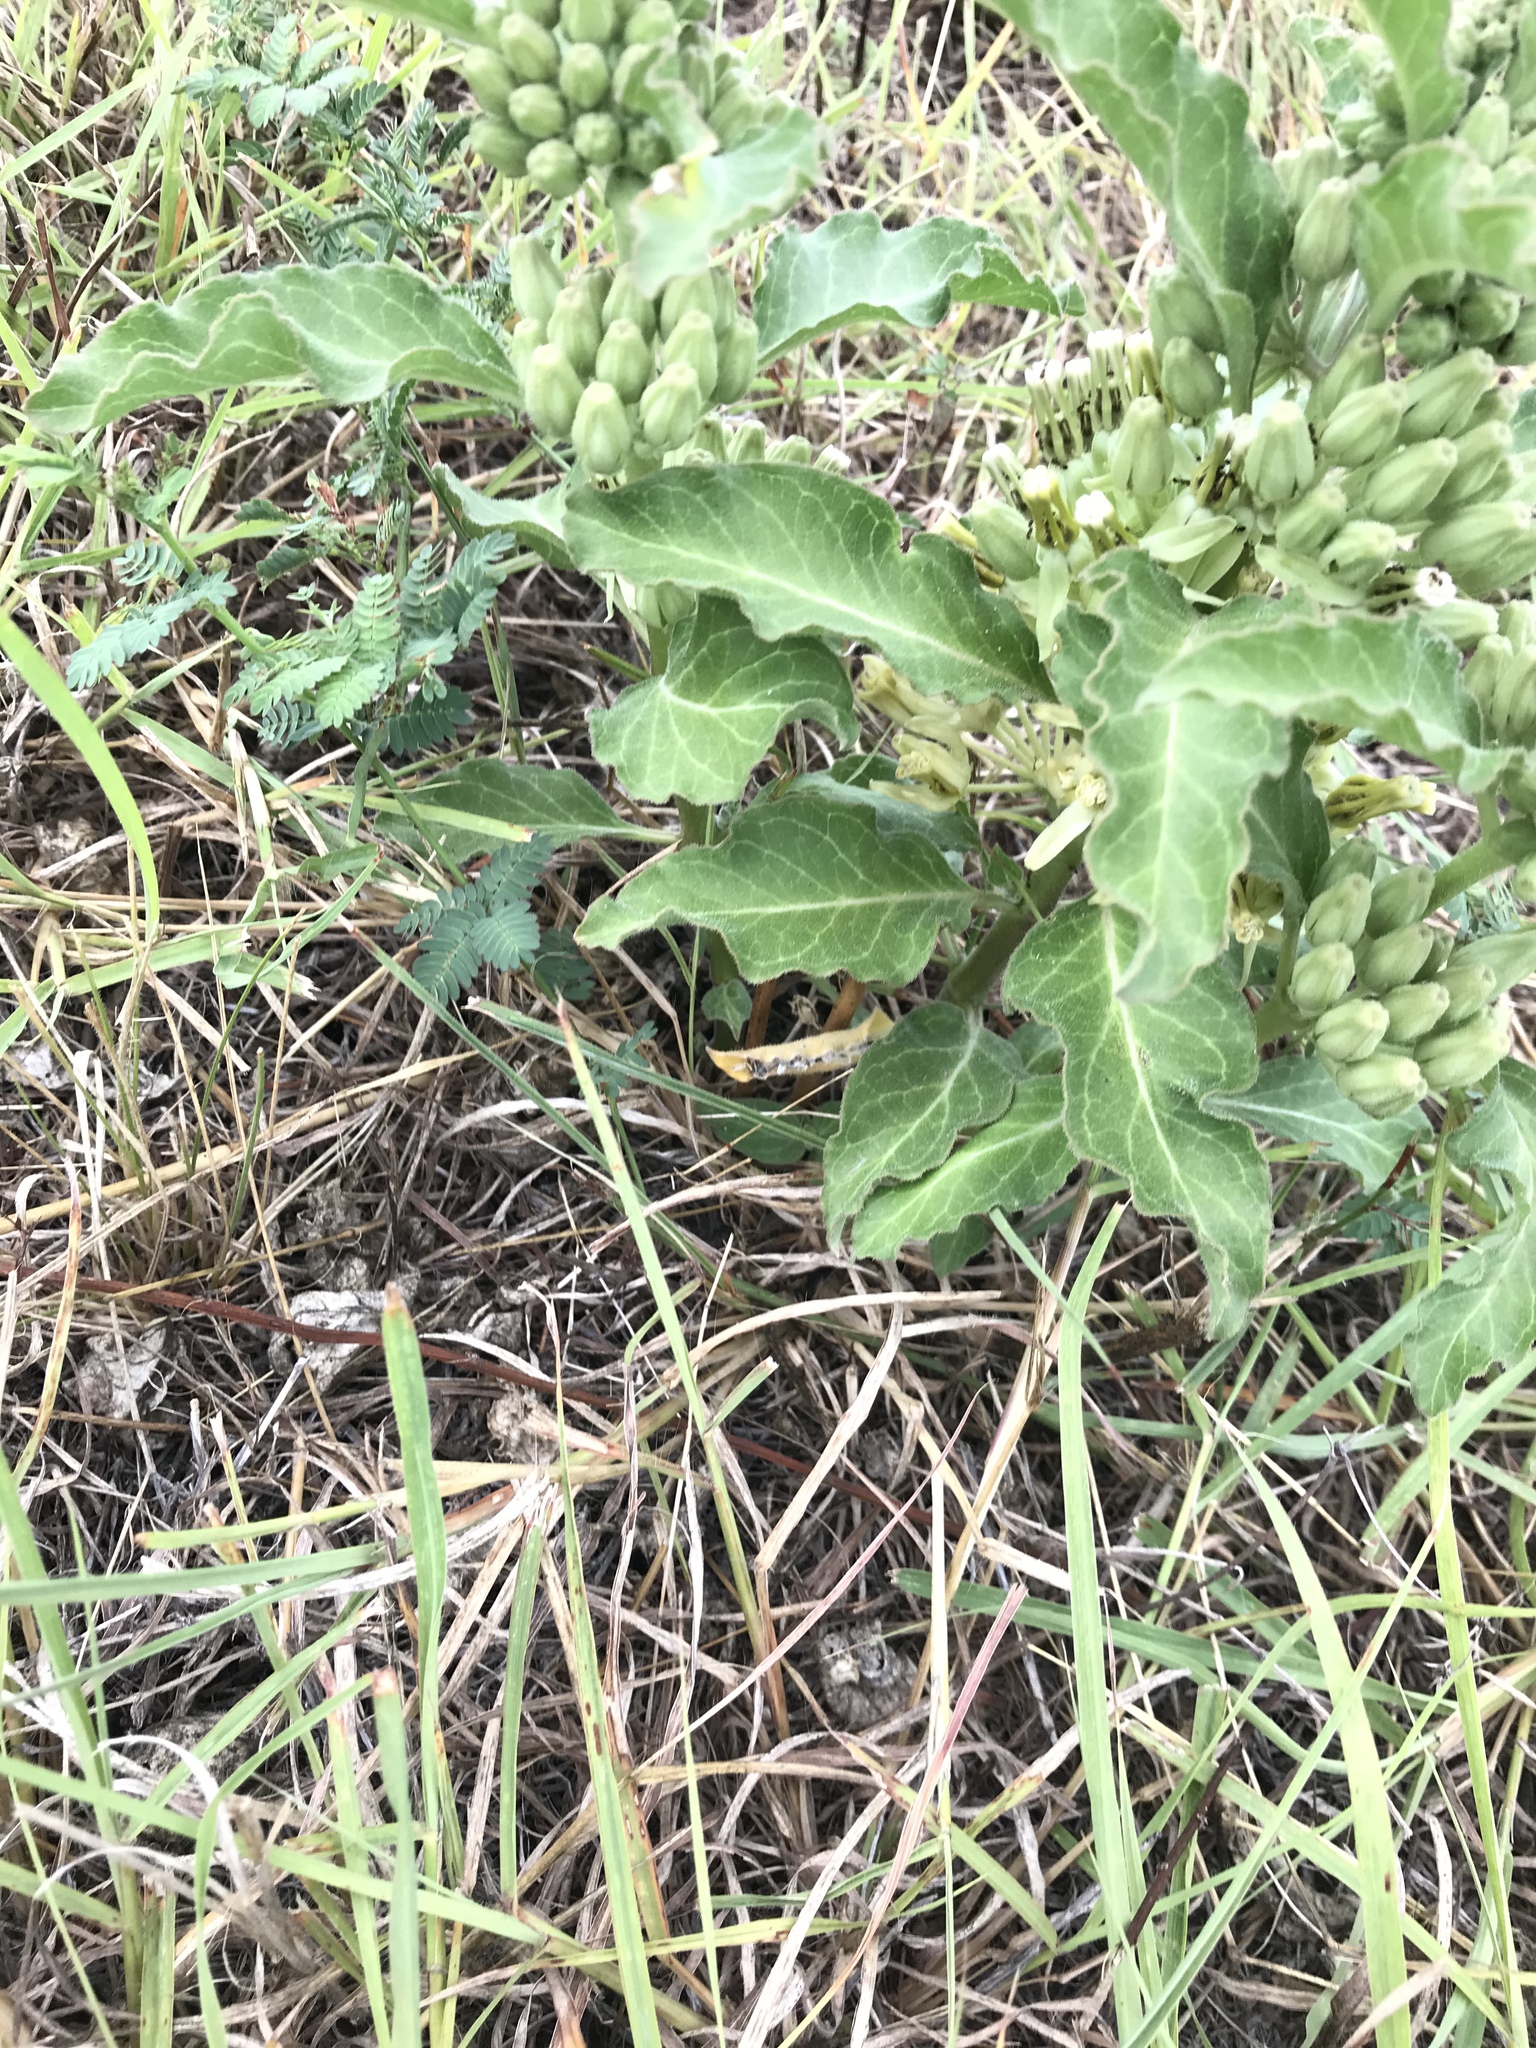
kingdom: Plantae
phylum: Tracheophyta
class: Magnoliopsida
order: Gentianales
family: Apocynaceae
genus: Asclepias
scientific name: Asclepias oenotheroides
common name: Zizotes milkweed
